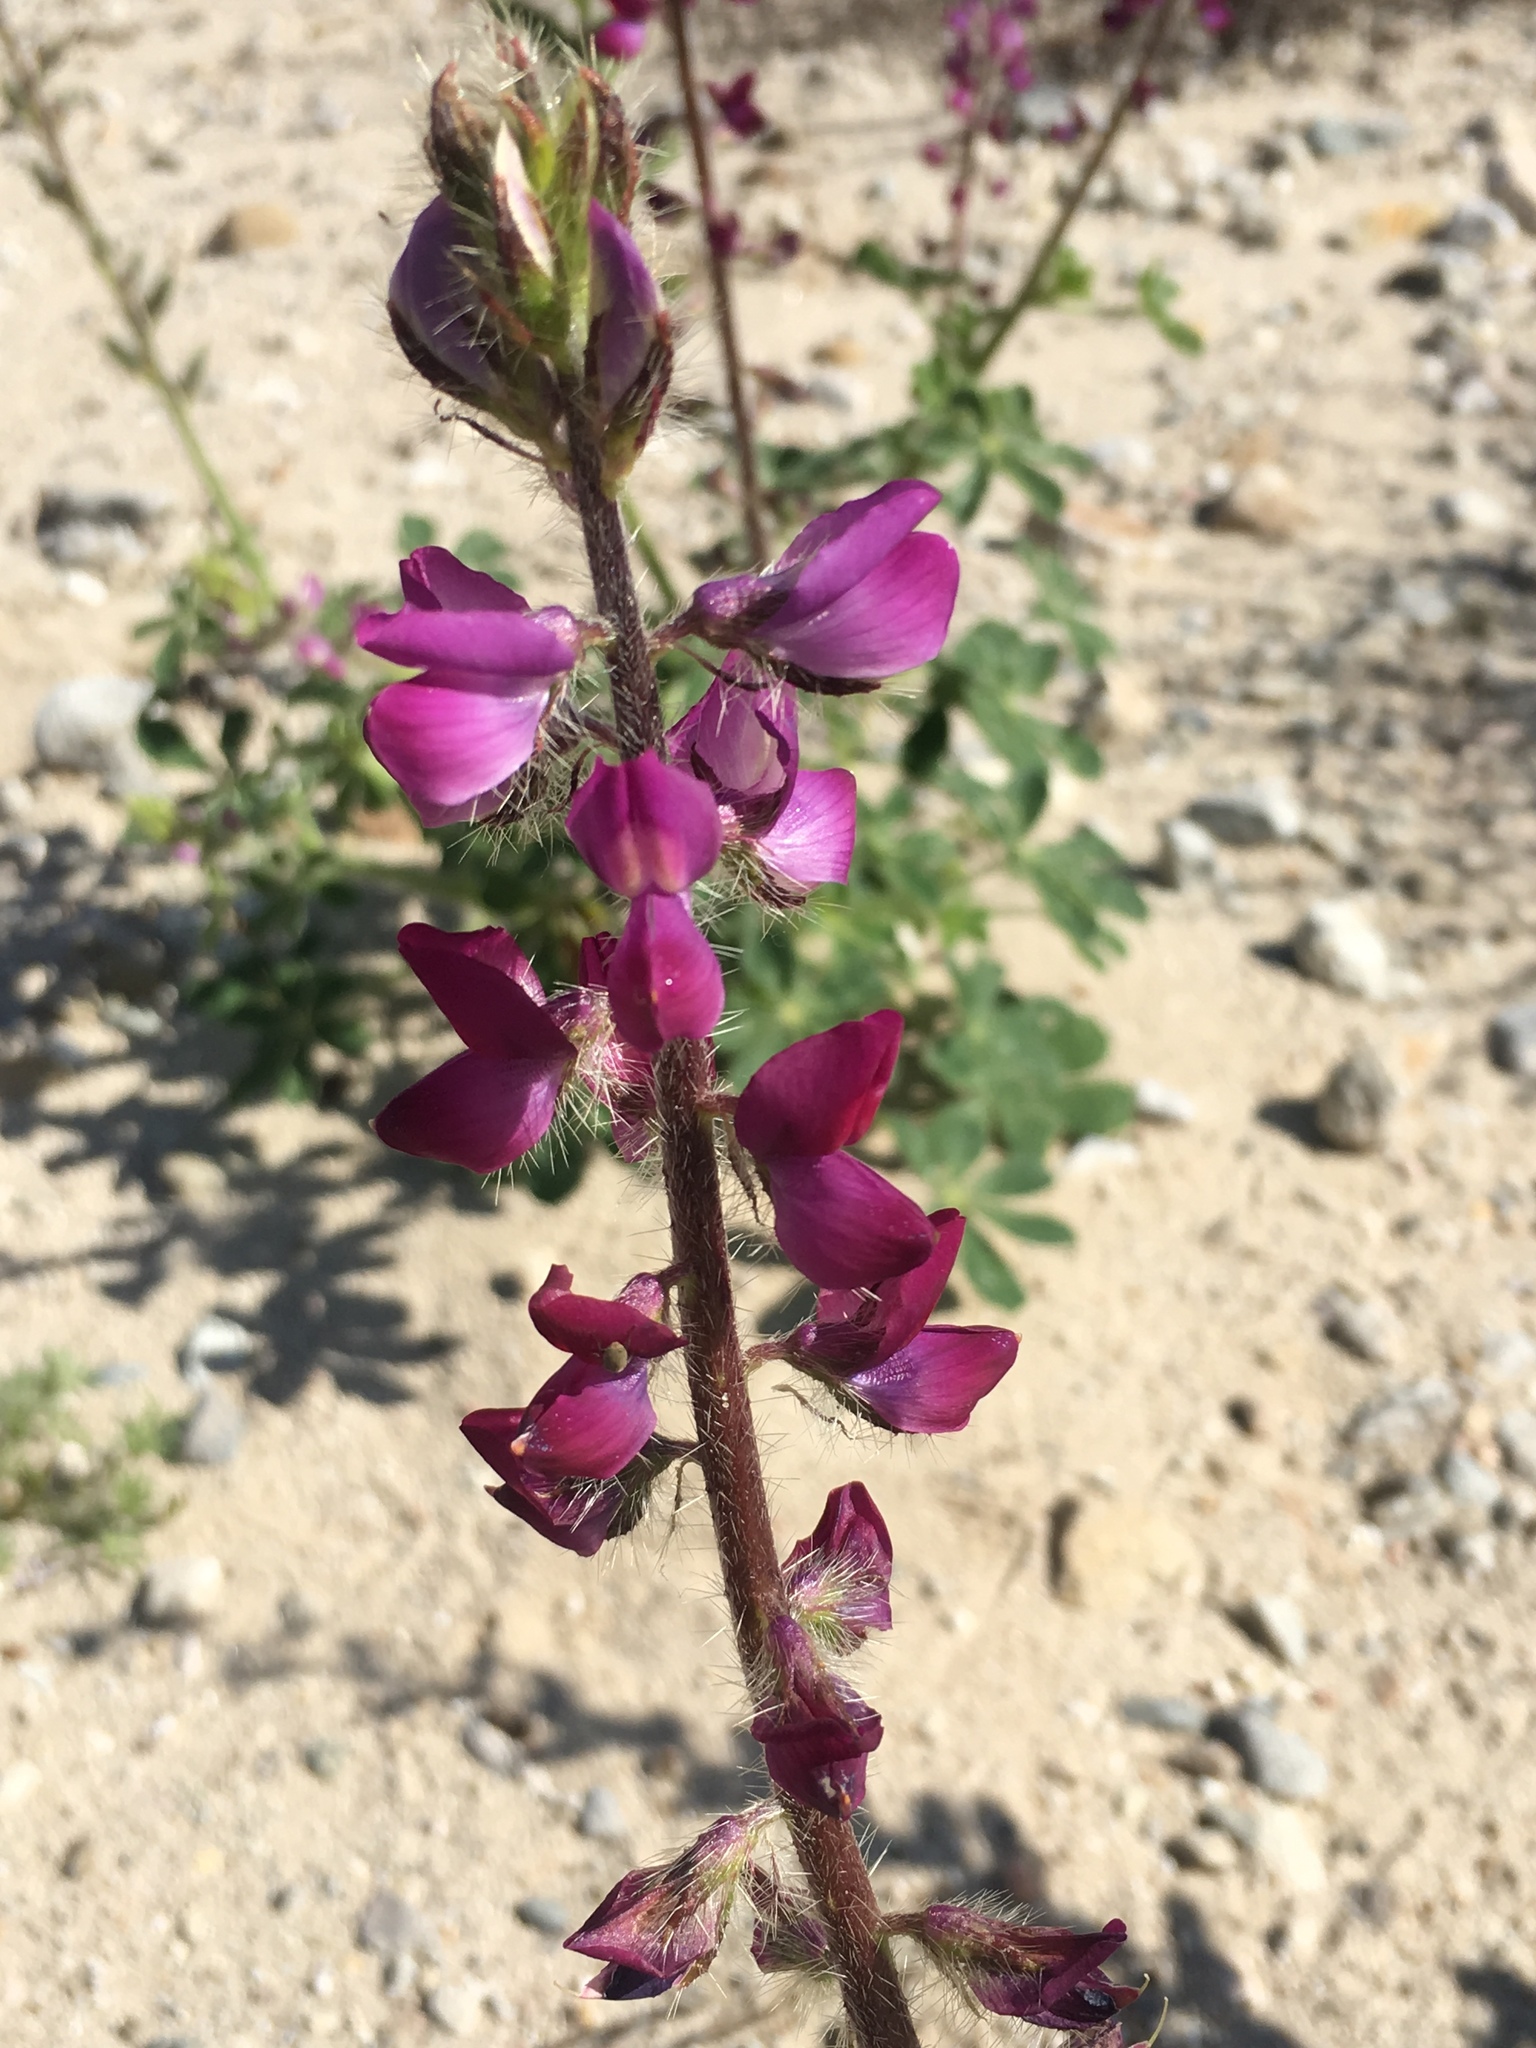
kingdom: Plantae
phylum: Tracheophyta
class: Magnoliopsida
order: Fabales
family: Fabaceae
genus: Lupinus
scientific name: Lupinus hirsutissimus
